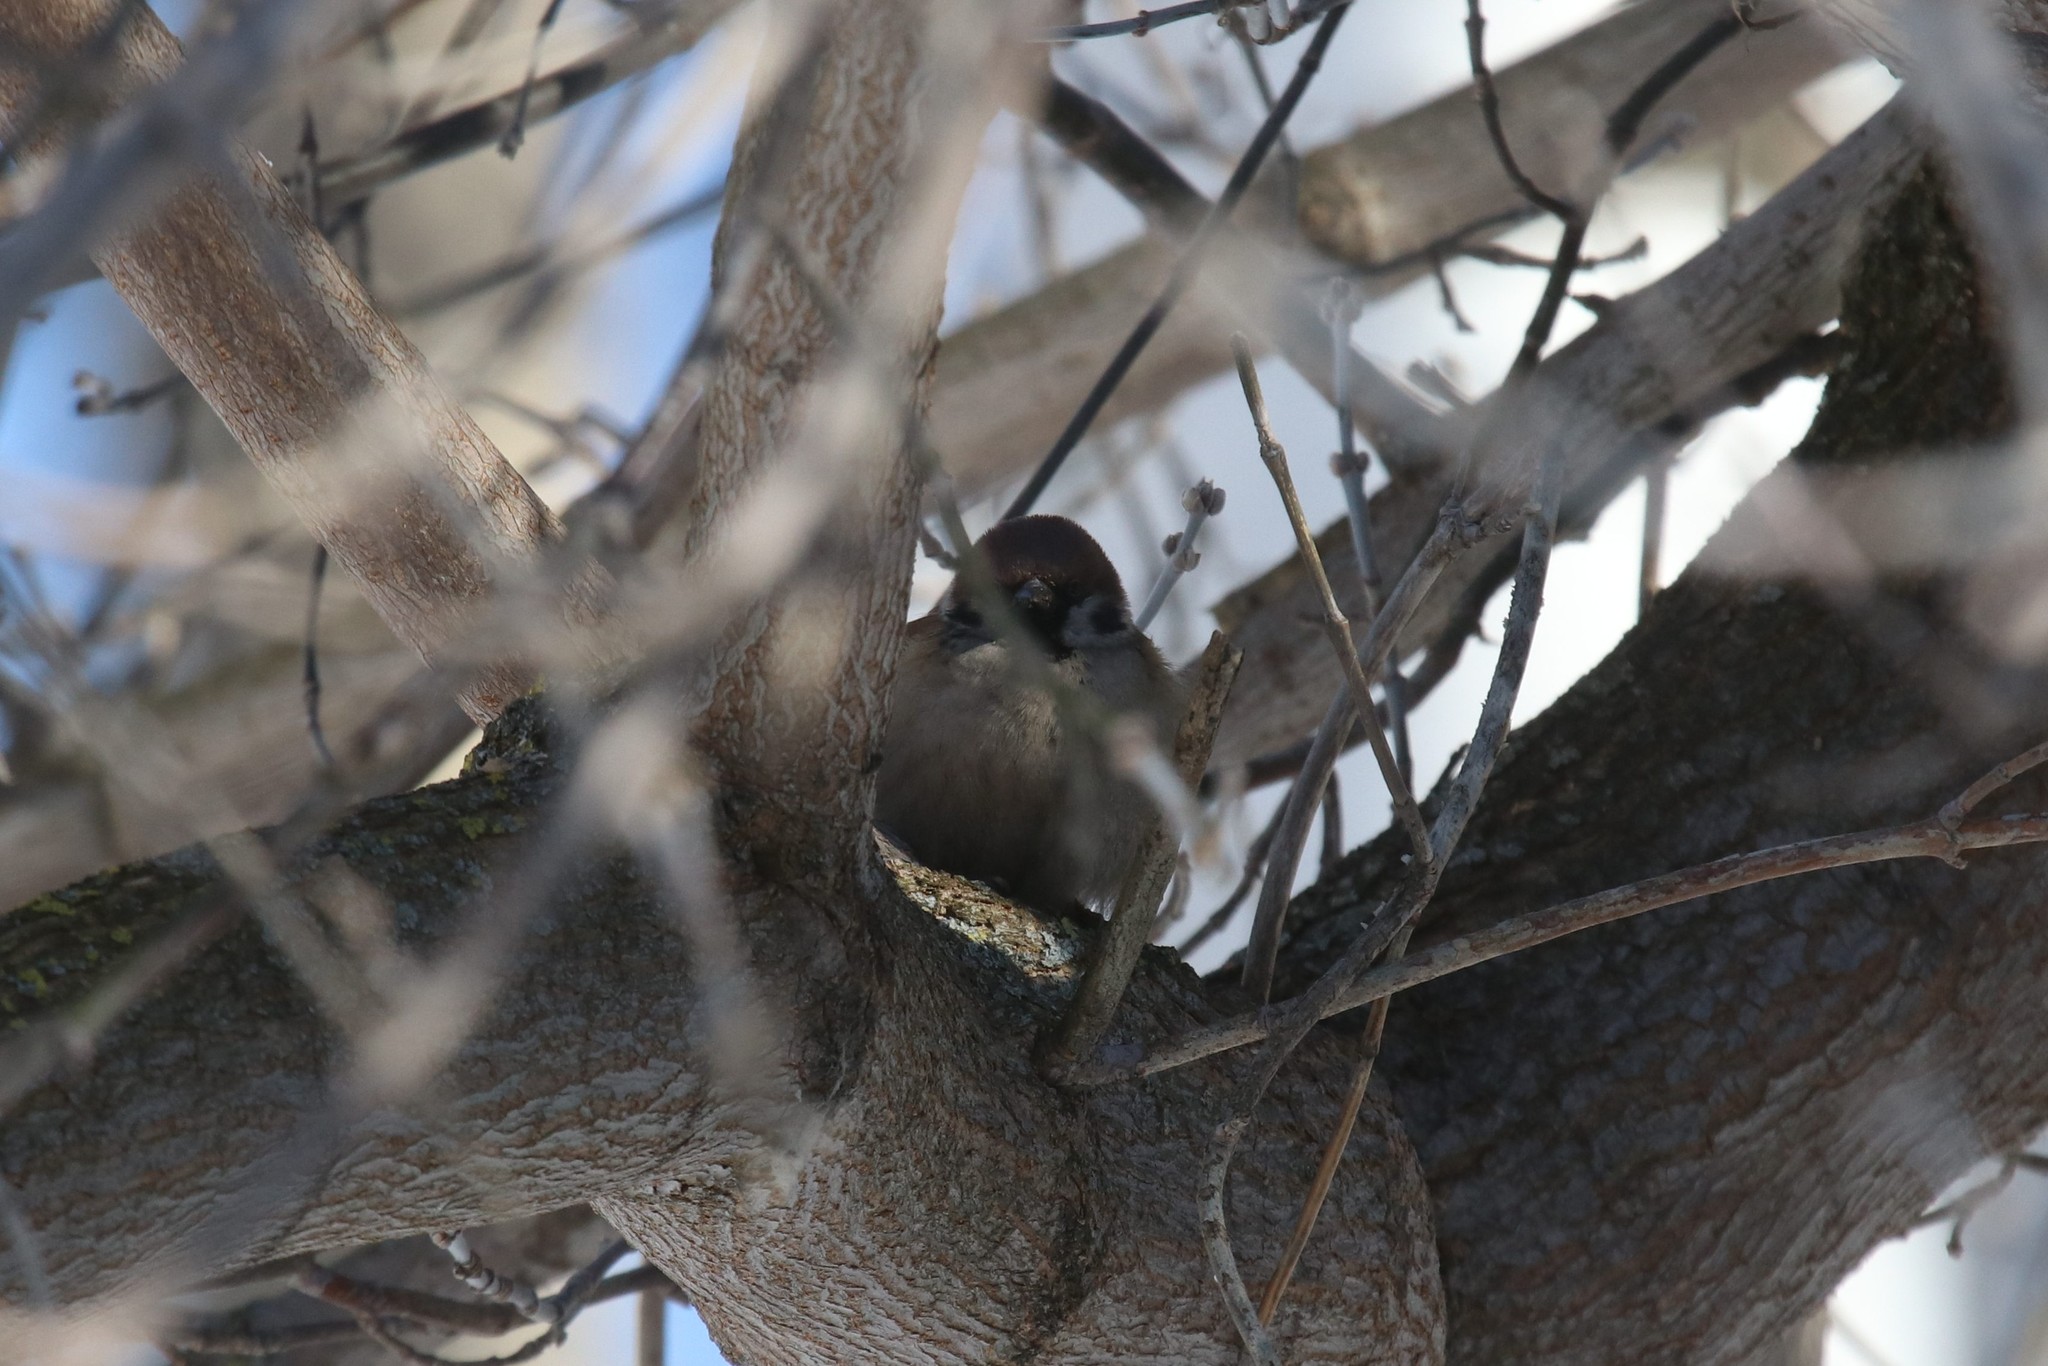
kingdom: Animalia
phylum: Chordata
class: Aves
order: Passeriformes
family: Passeridae
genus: Passer
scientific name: Passer montanus
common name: Eurasian tree sparrow
